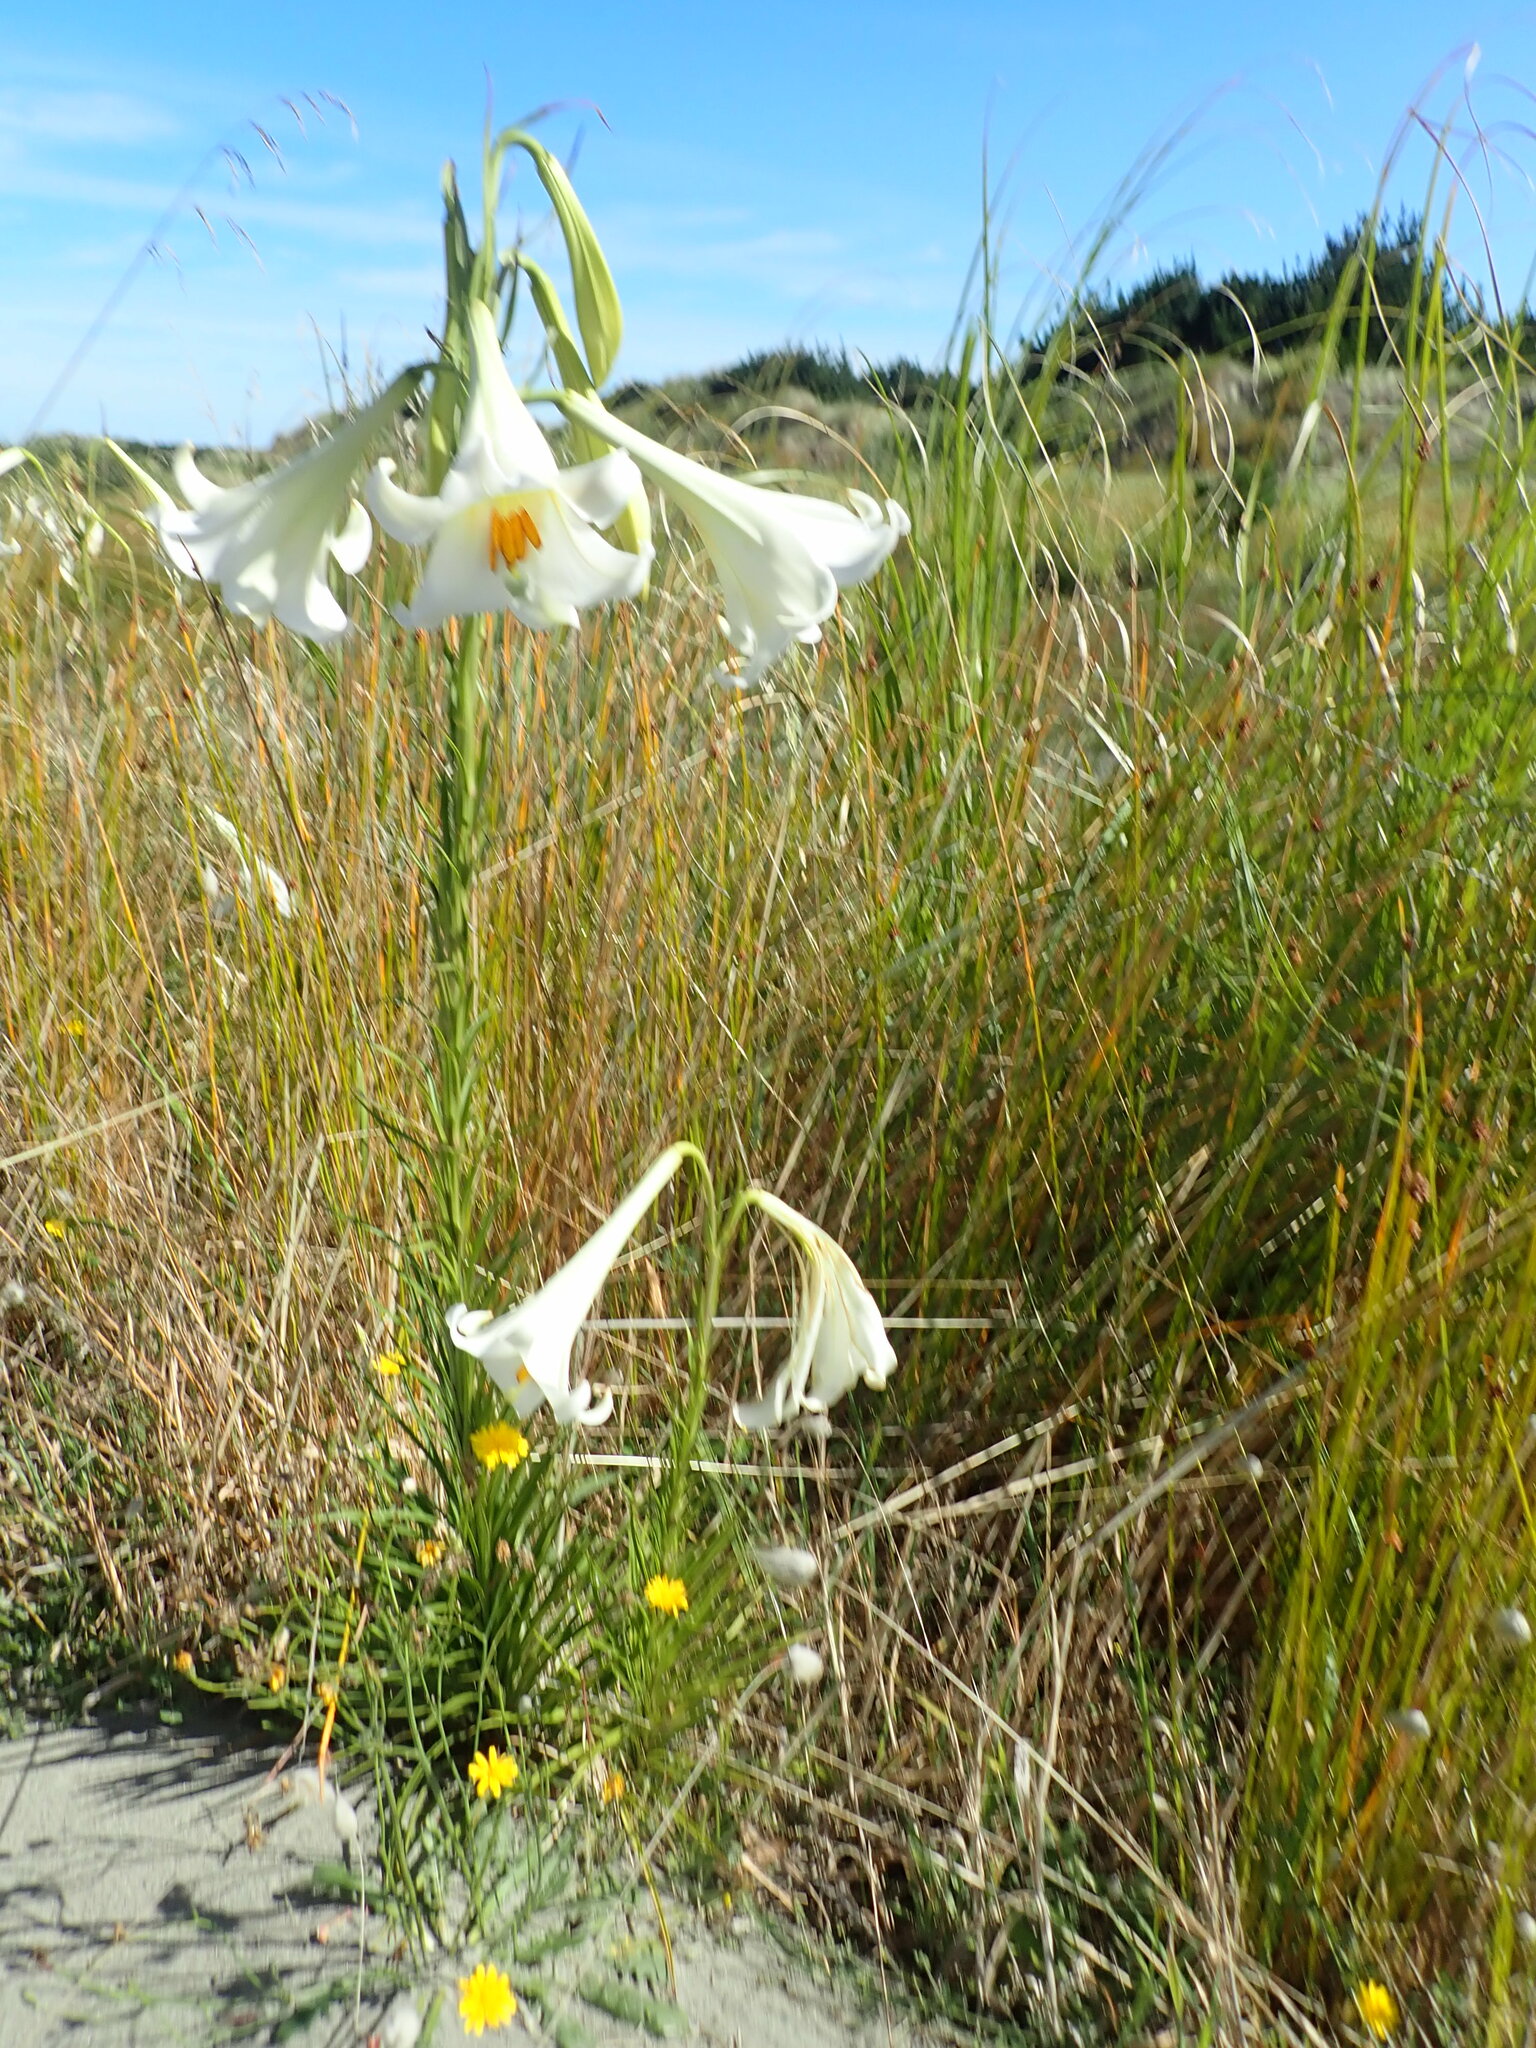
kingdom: Plantae
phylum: Tracheophyta
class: Liliopsida
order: Liliales
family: Liliaceae
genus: Lilium
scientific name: Lilium formosanum
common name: Formosa lily
